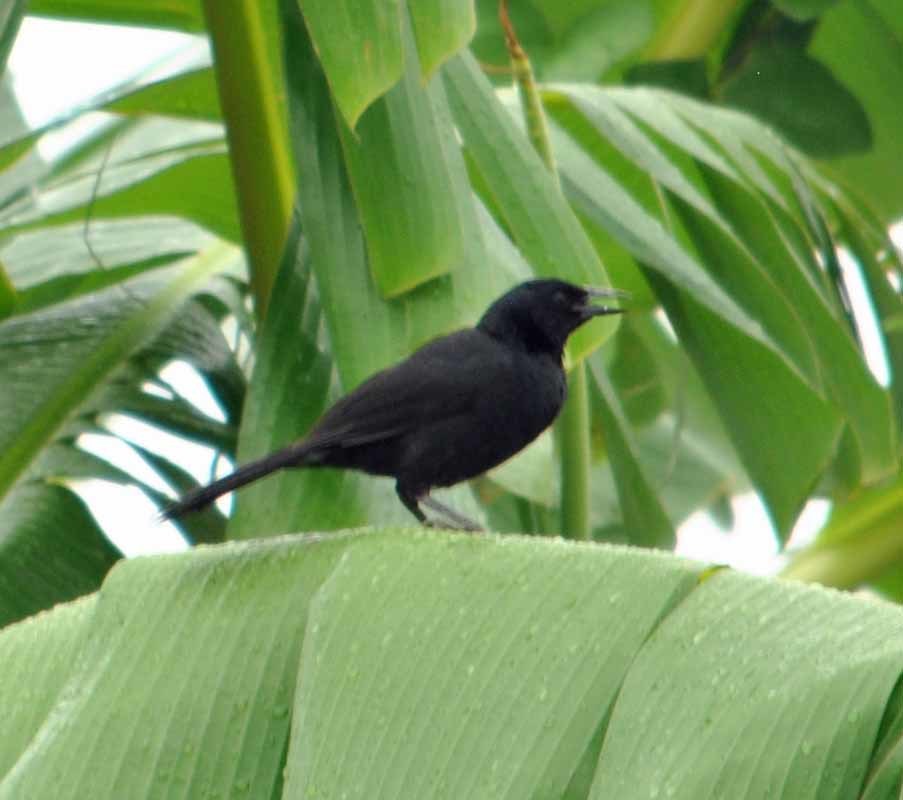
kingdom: Animalia
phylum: Chordata
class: Aves
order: Passeriformes
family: Icteridae
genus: Dives
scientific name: Dives dives
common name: Melodious blackbird
